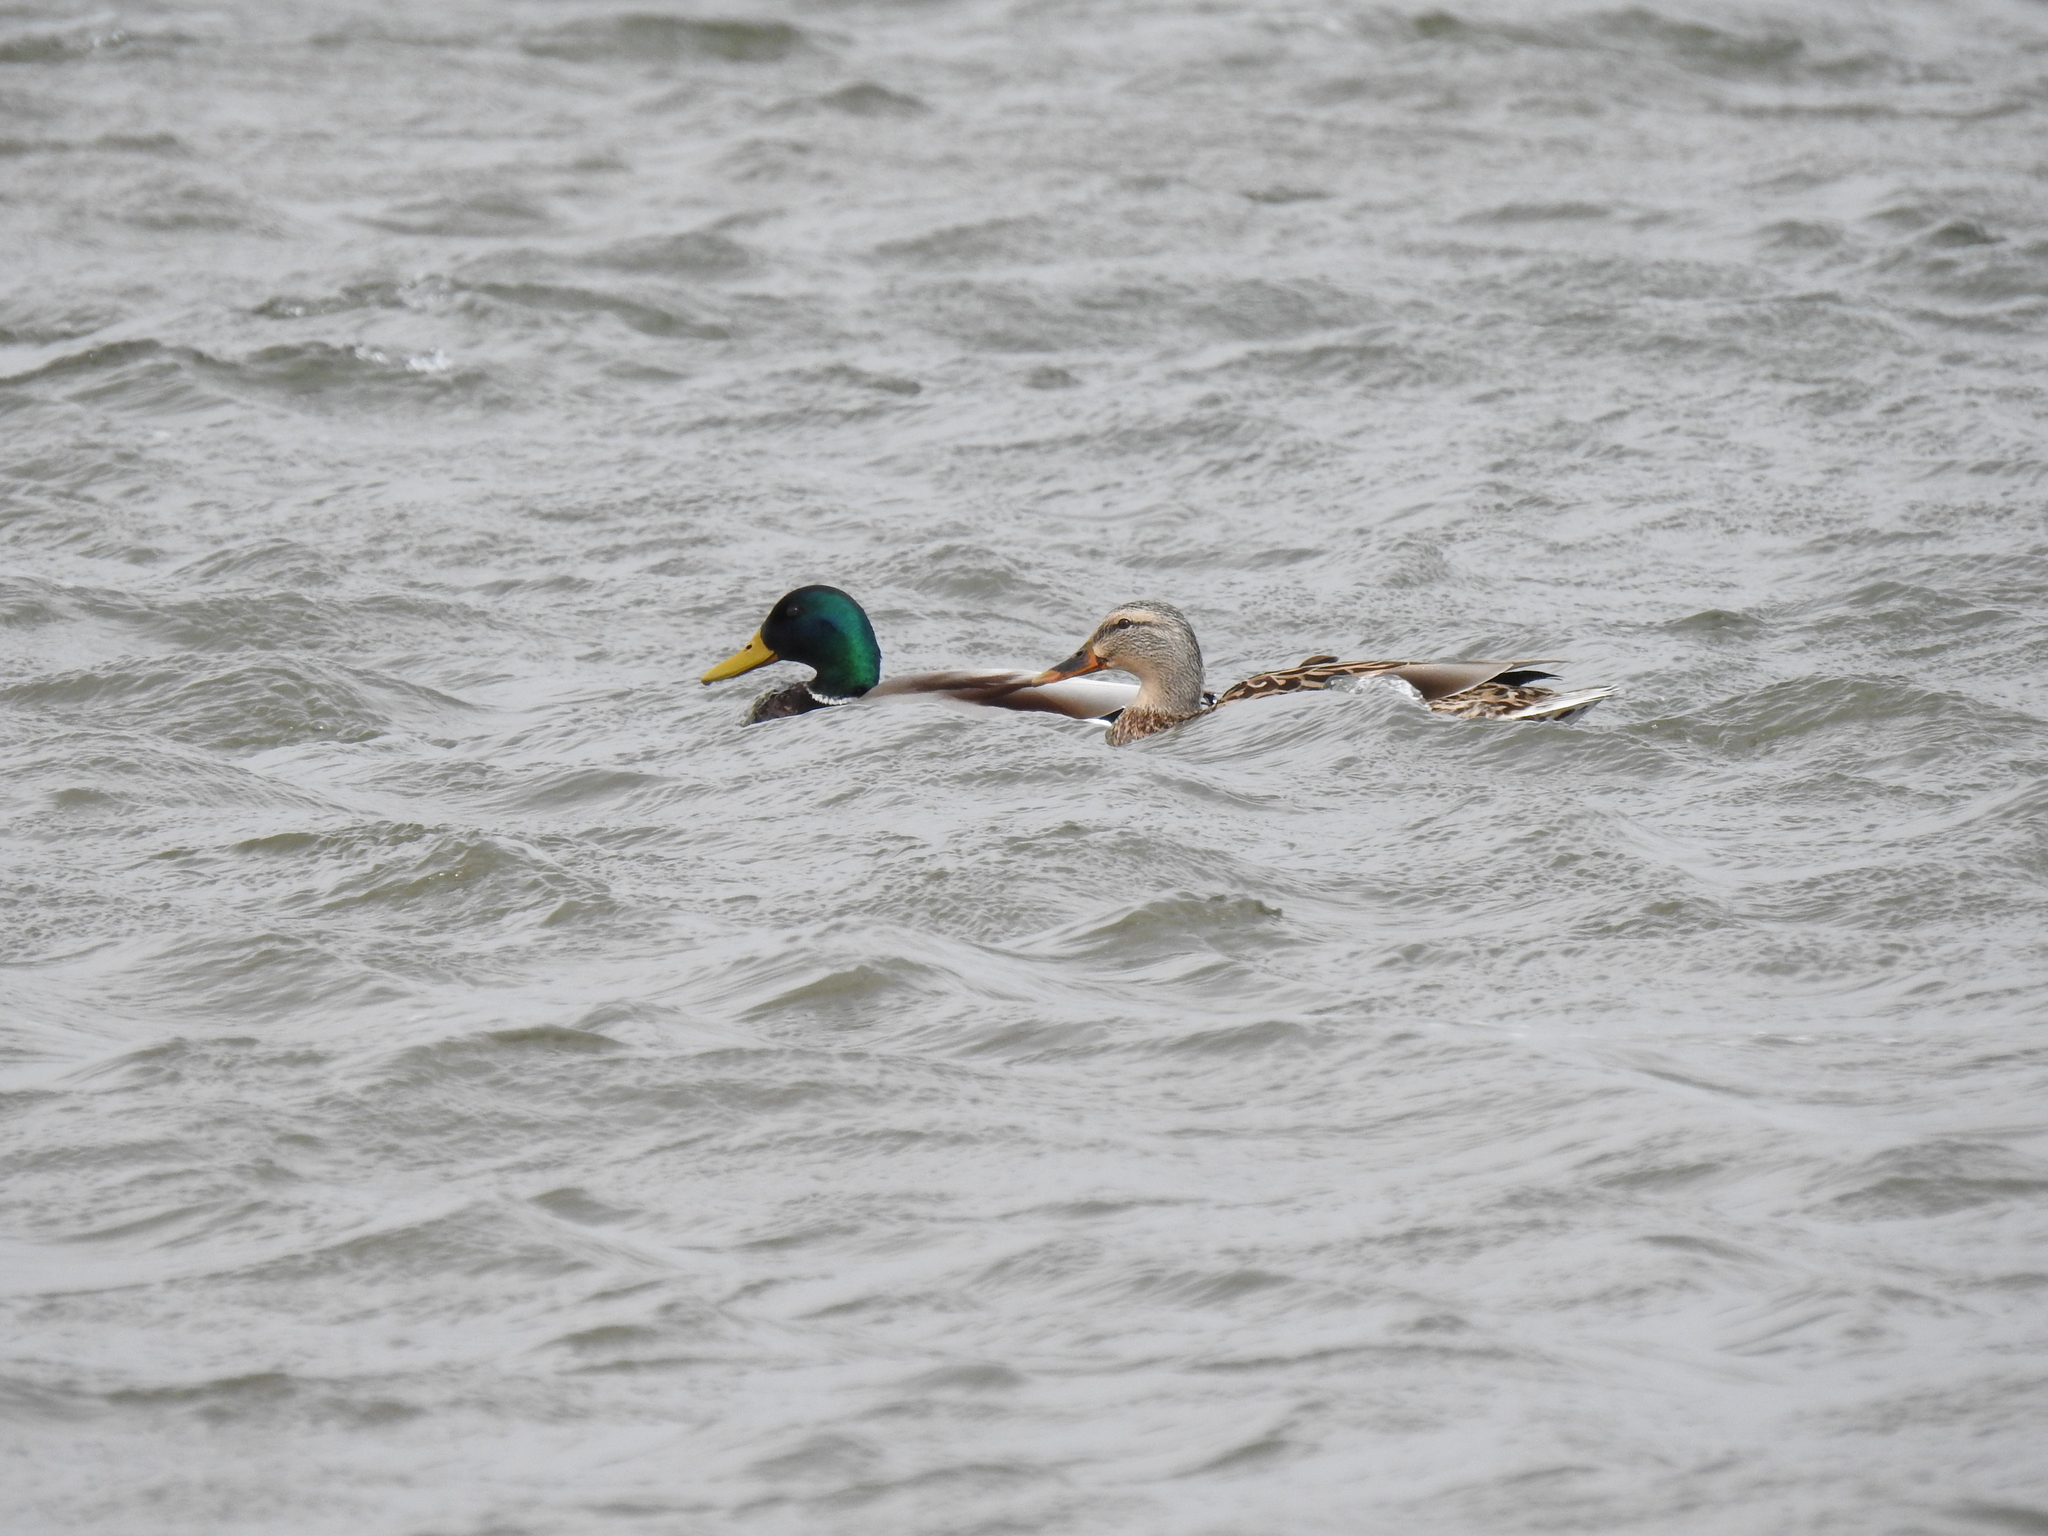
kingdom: Animalia
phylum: Chordata
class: Aves
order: Anseriformes
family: Anatidae
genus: Anas
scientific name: Anas platyrhynchos
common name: Mallard
